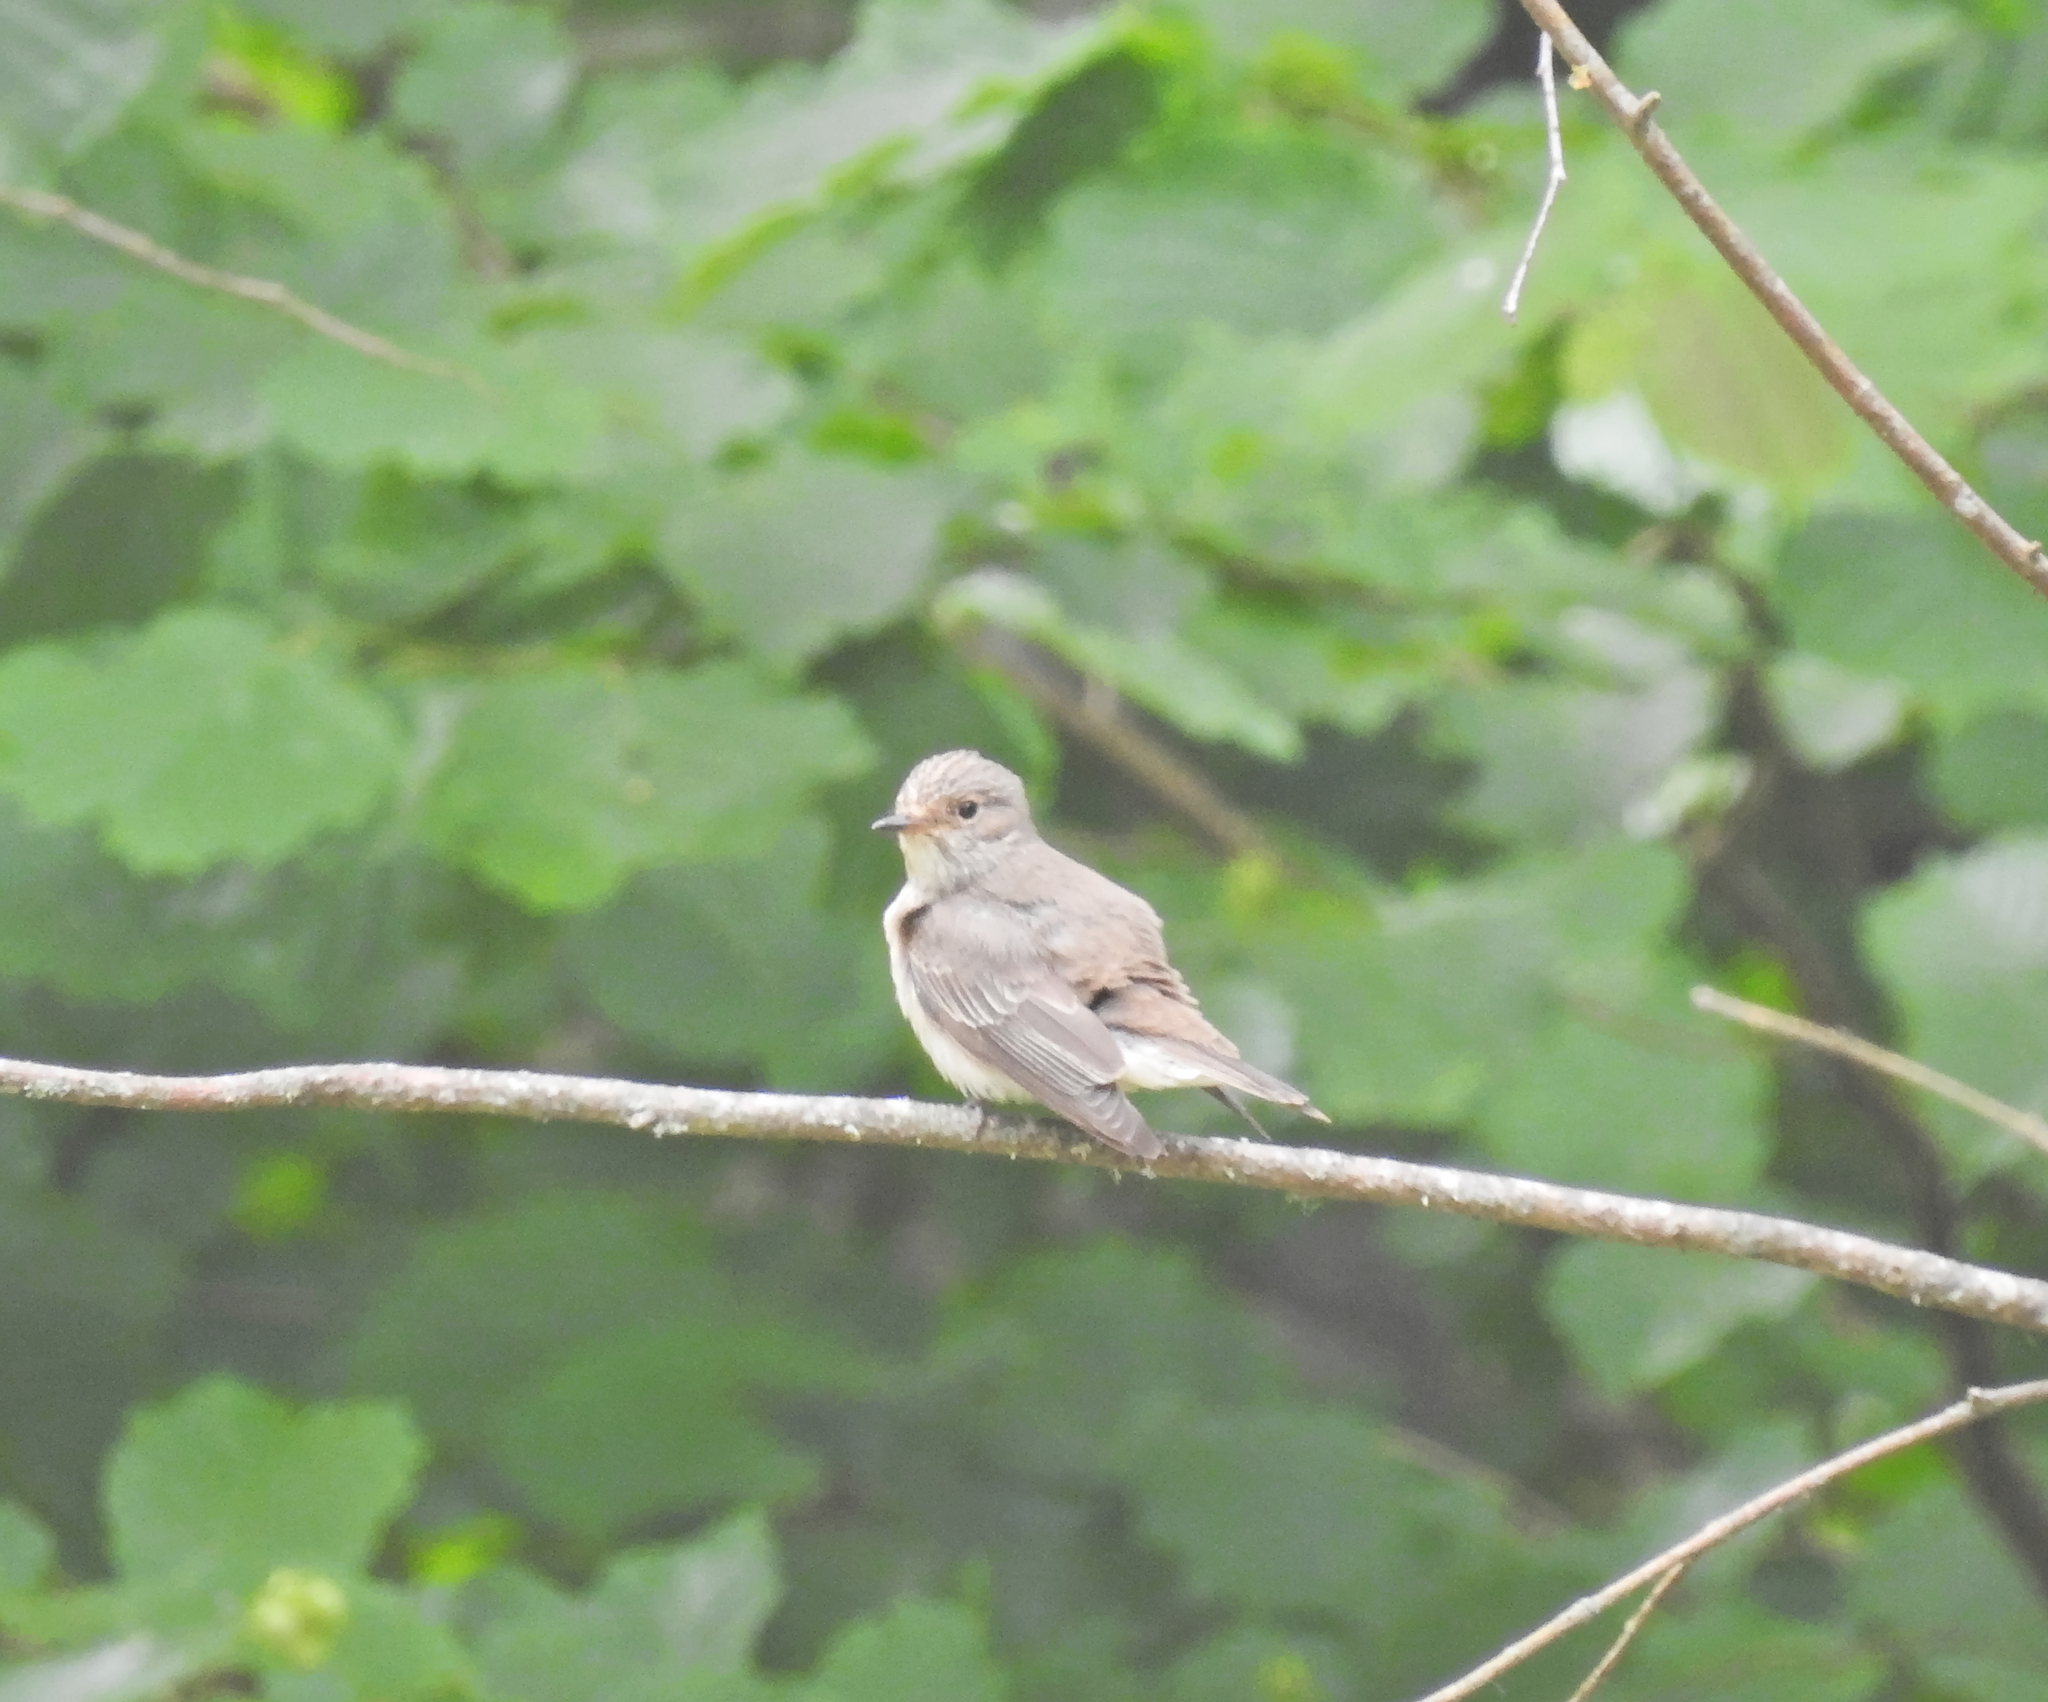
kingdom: Animalia
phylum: Chordata
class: Aves
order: Passeriformes
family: Muscicapidae
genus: Muscicapa
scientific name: Muscicapa striata
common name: Spotted flycatcher
